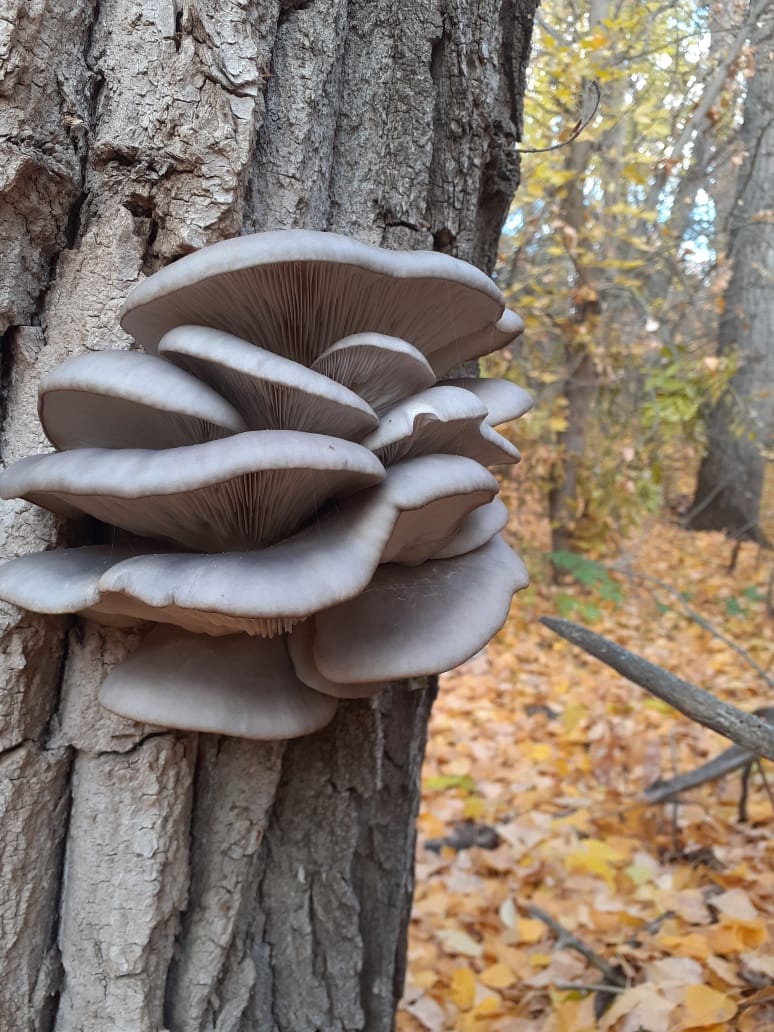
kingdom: Fungi
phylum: Basidiomycota
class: Agaricomycetes
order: Agaricales
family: Pleurotaceae
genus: Pleurotus
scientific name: Pleurotus ostreatus
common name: Oyster mushroom
